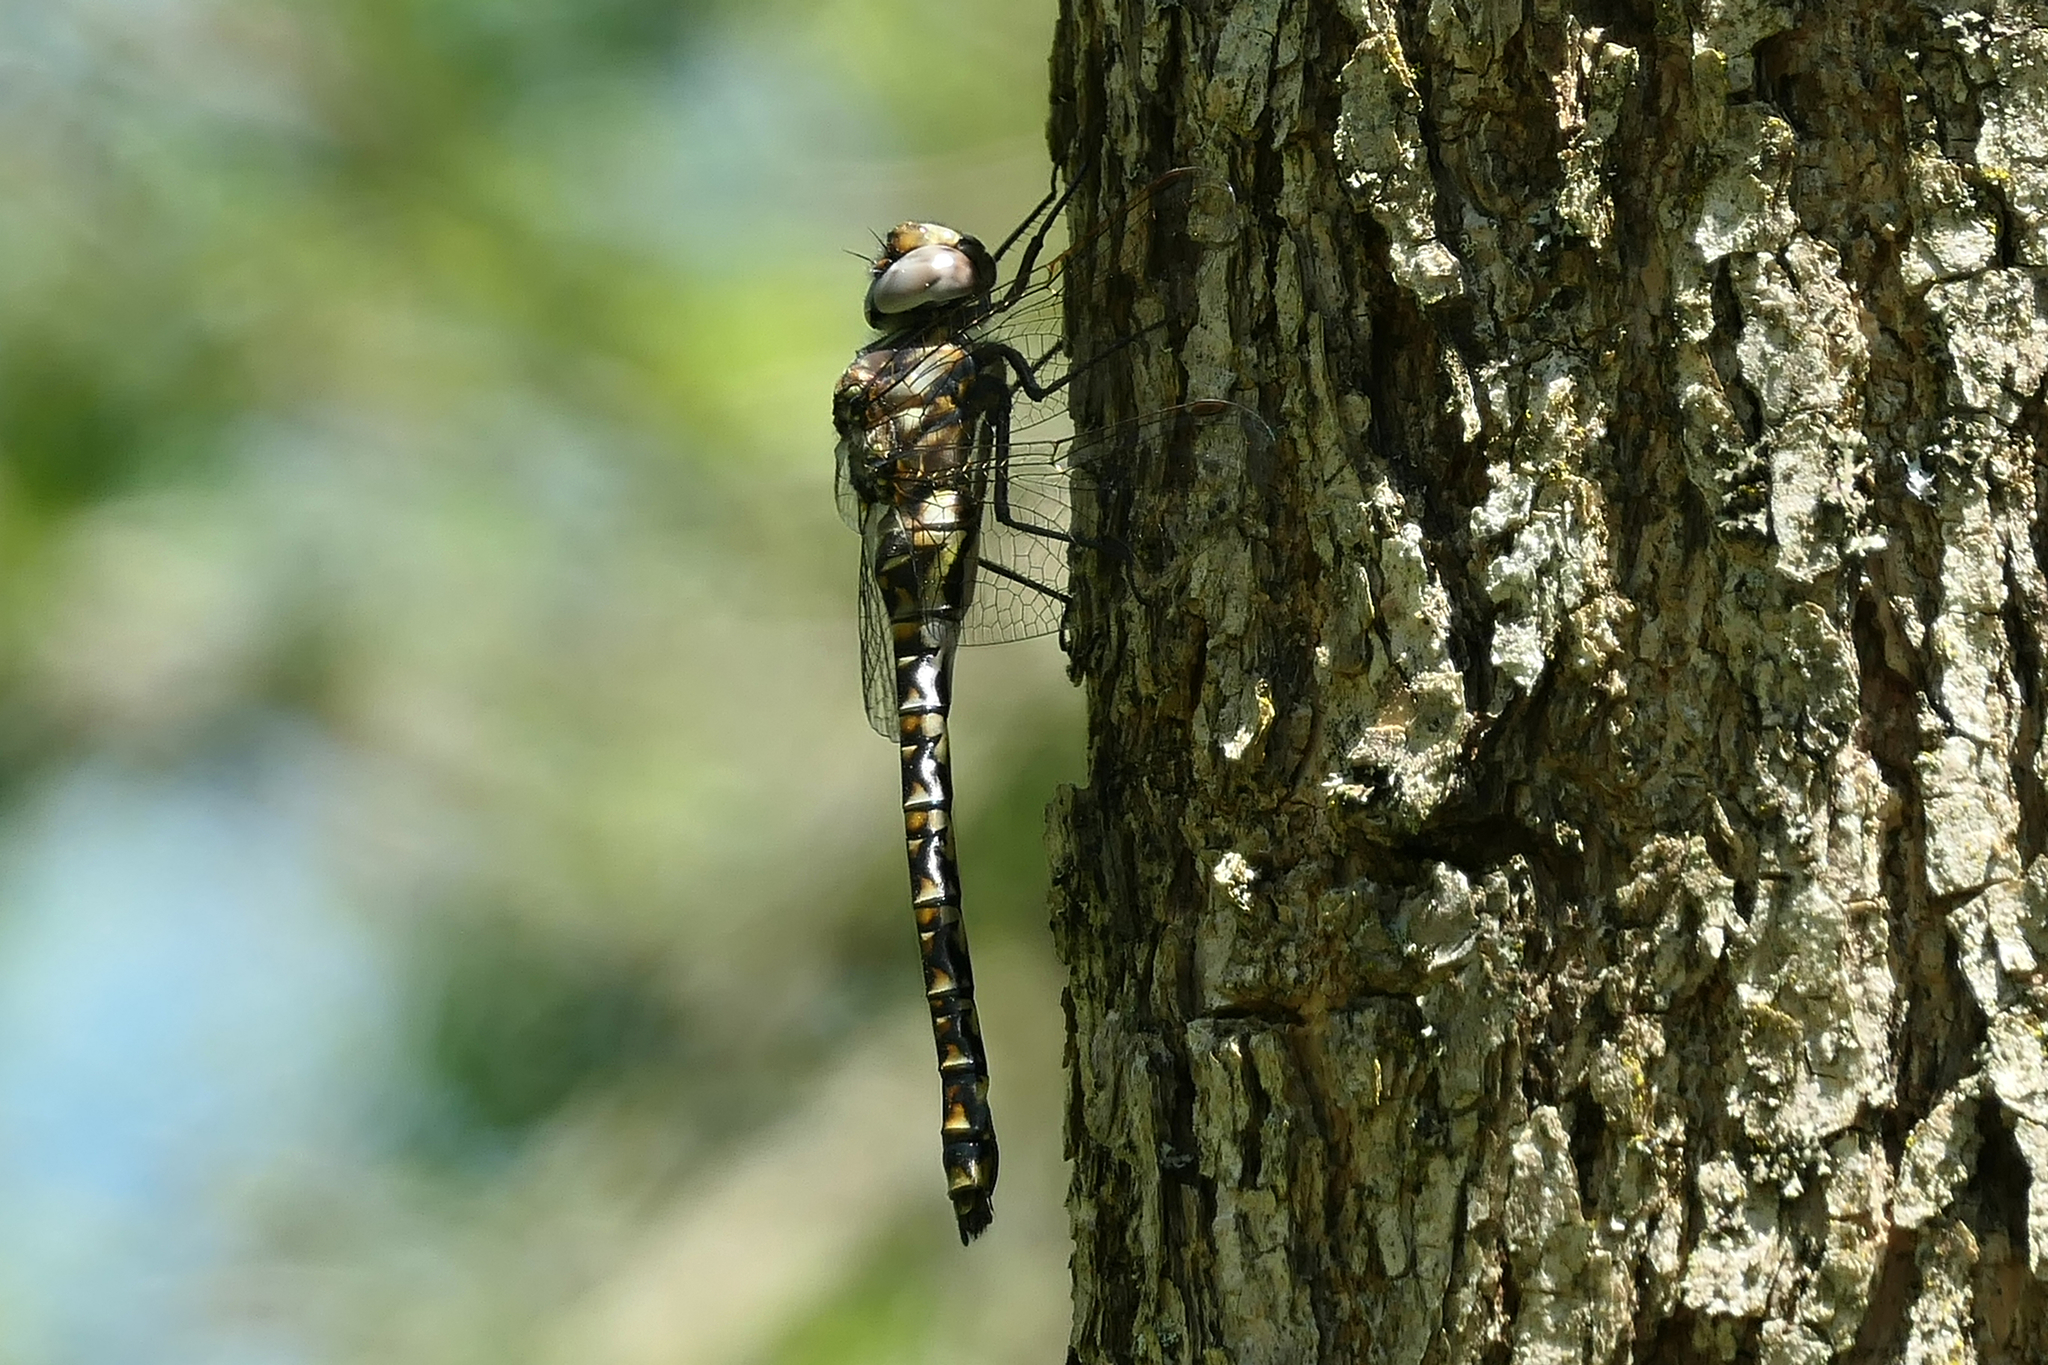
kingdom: Animalia
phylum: Arthropoda
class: Insecta
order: Odonata
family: Aeshnidae
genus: Gomphaeschna
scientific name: Gomphaeschna furcillata
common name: Harlequin darner
